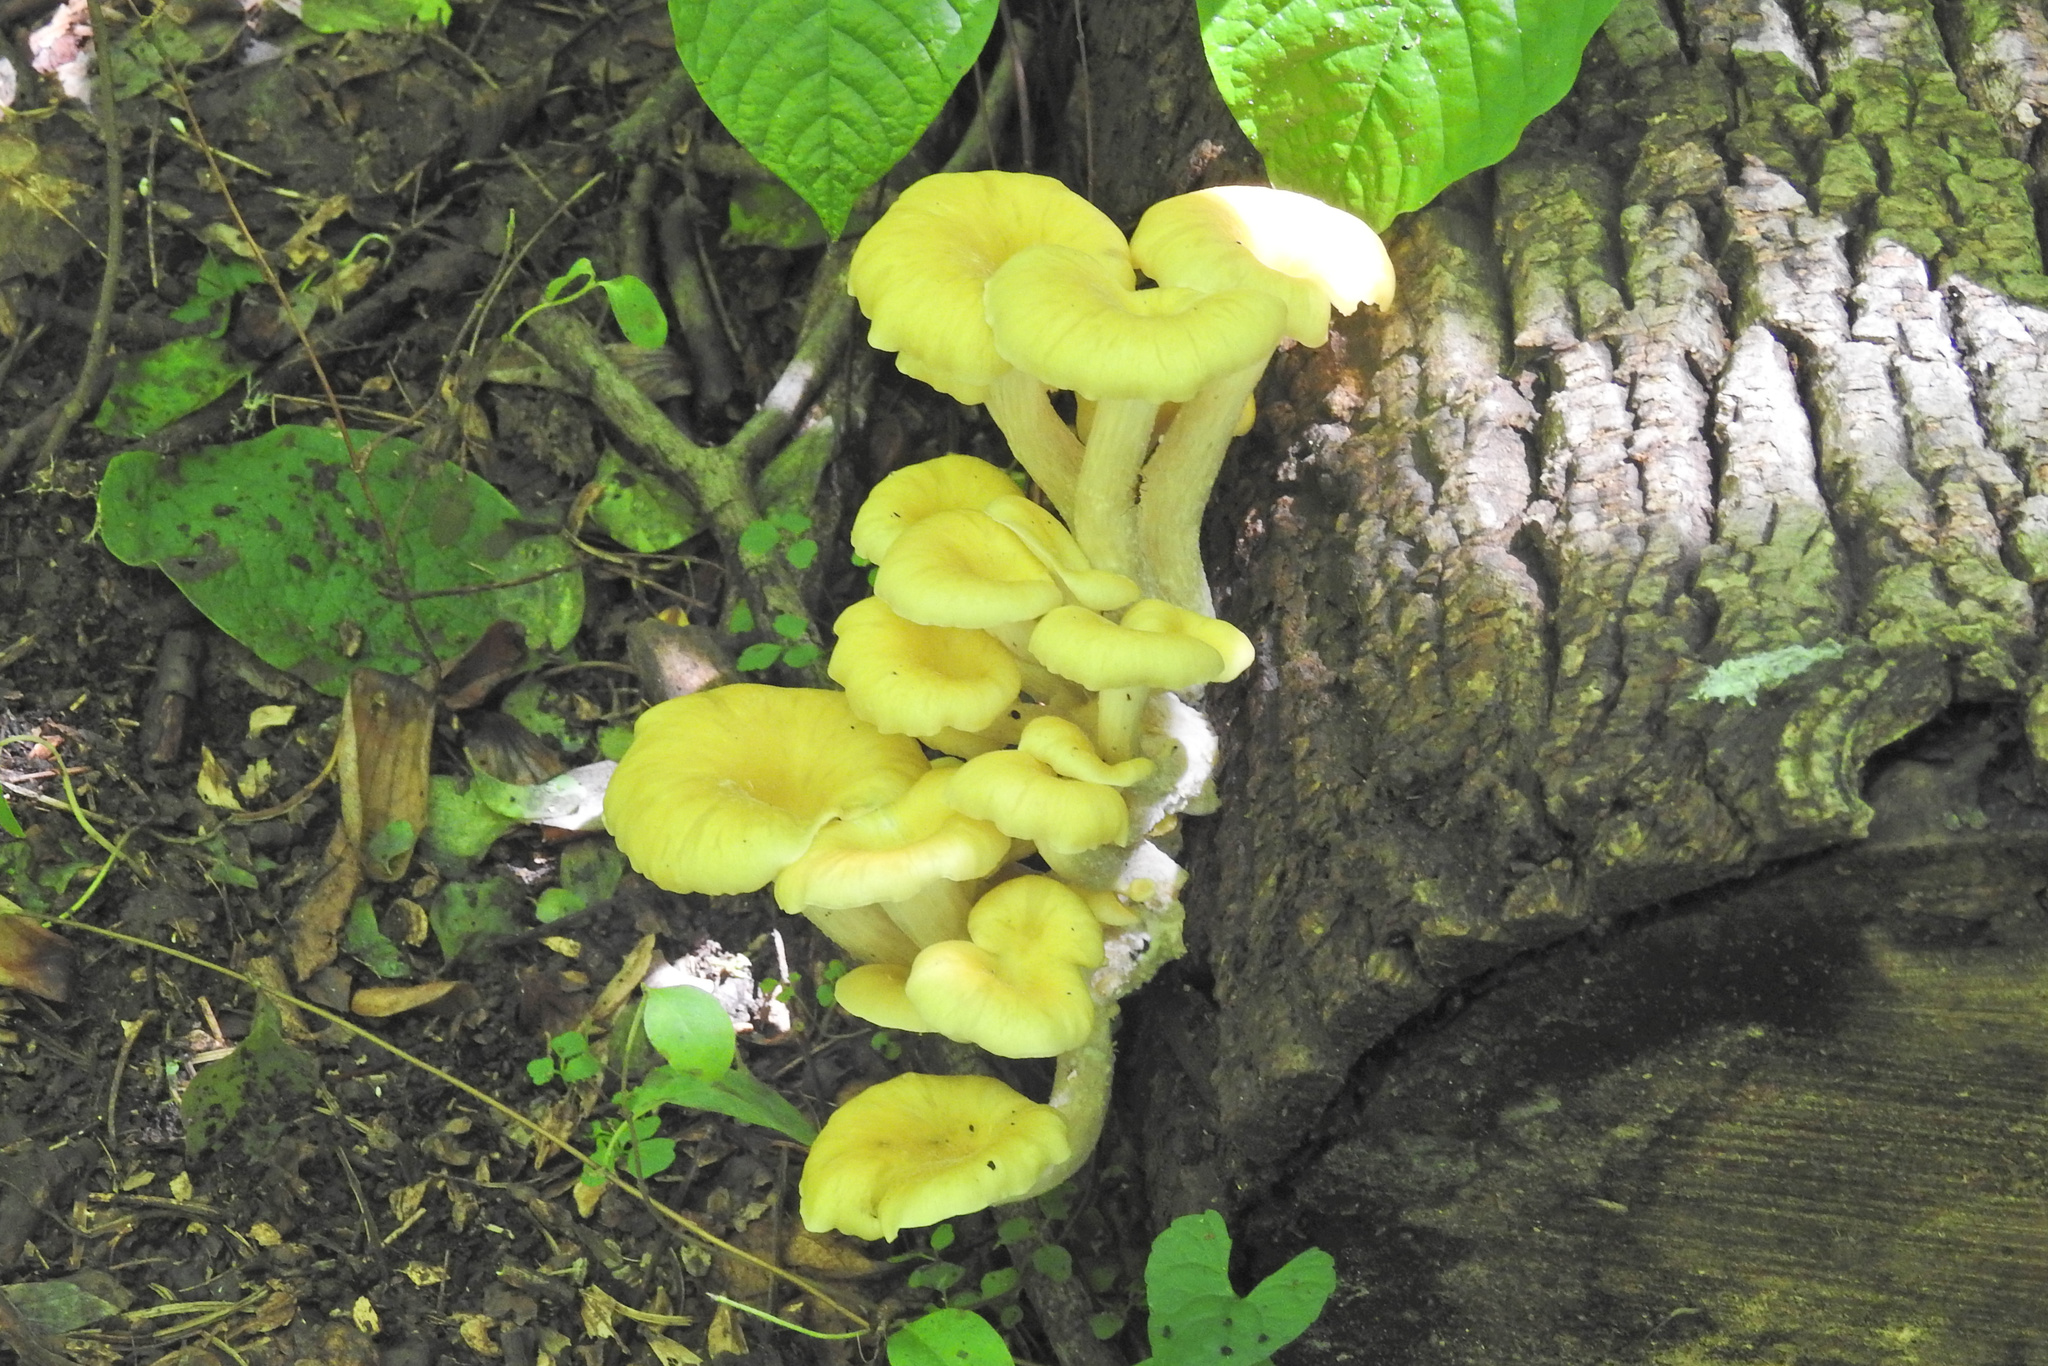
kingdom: Fungi
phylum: Basidiomycota
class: Agaricomycetes
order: Agaricales
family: Pleurotaceae
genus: Pleurotus
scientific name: Pleurotus citrinopileatus
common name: Golden oyster mushroom
